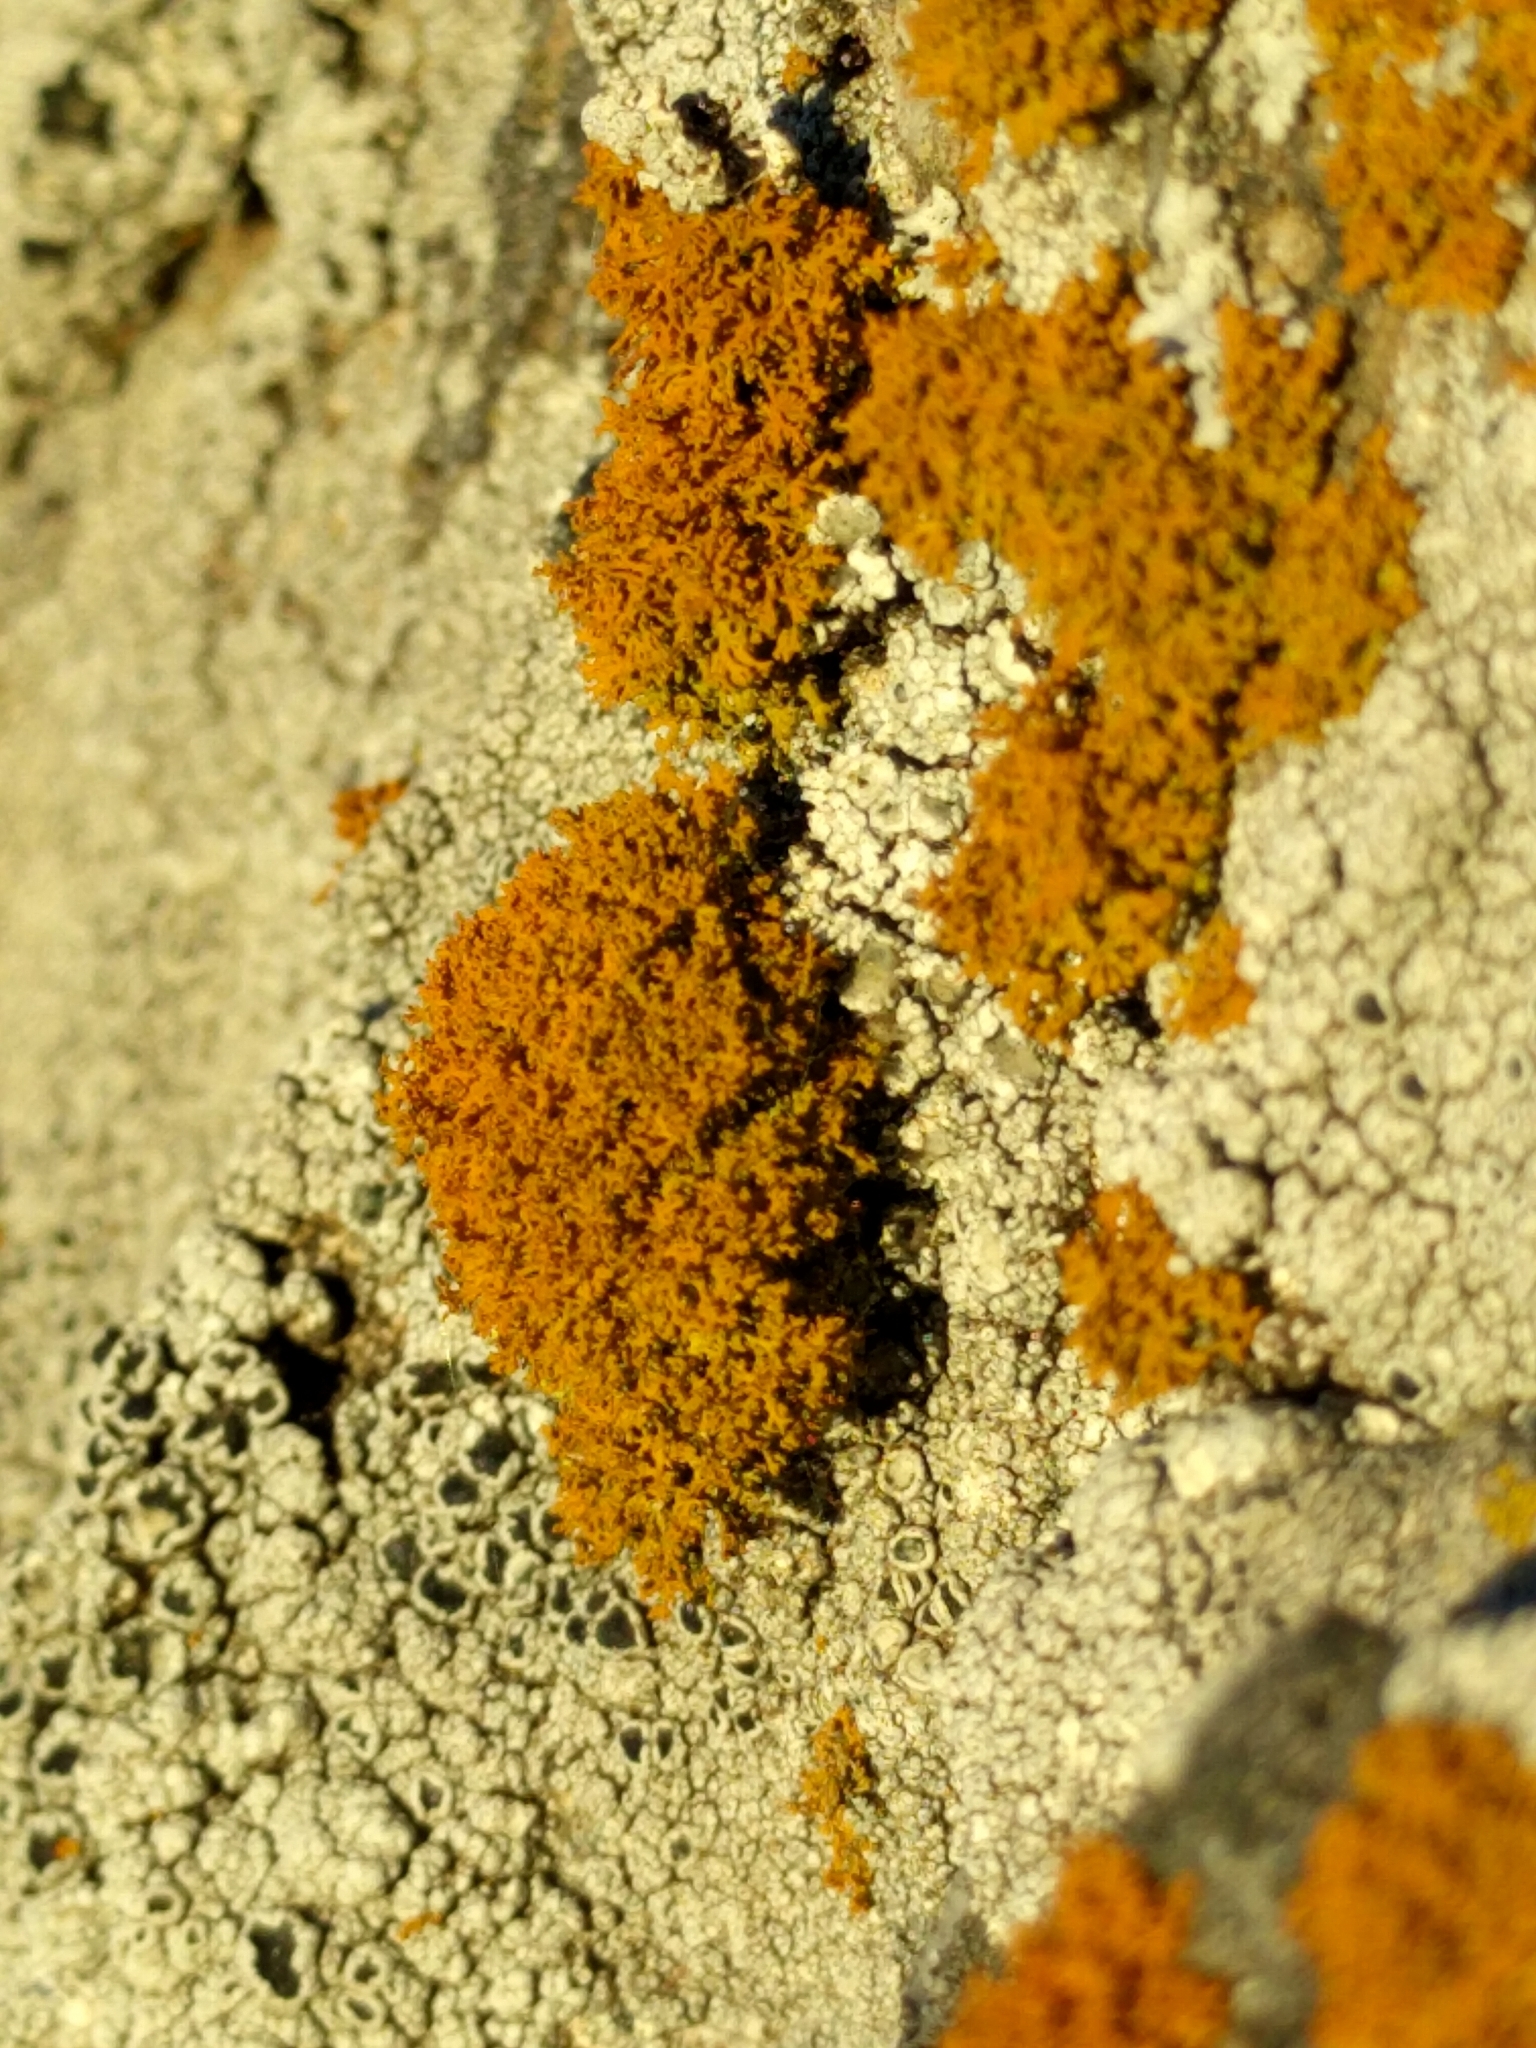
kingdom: Fungi
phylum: Ascomycota
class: Lecanoromycetes
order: Teloschistales
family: Teloschistaceae
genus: Polycauliona
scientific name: Polycauliona candelaria
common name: Shrubby sunburst lichen
